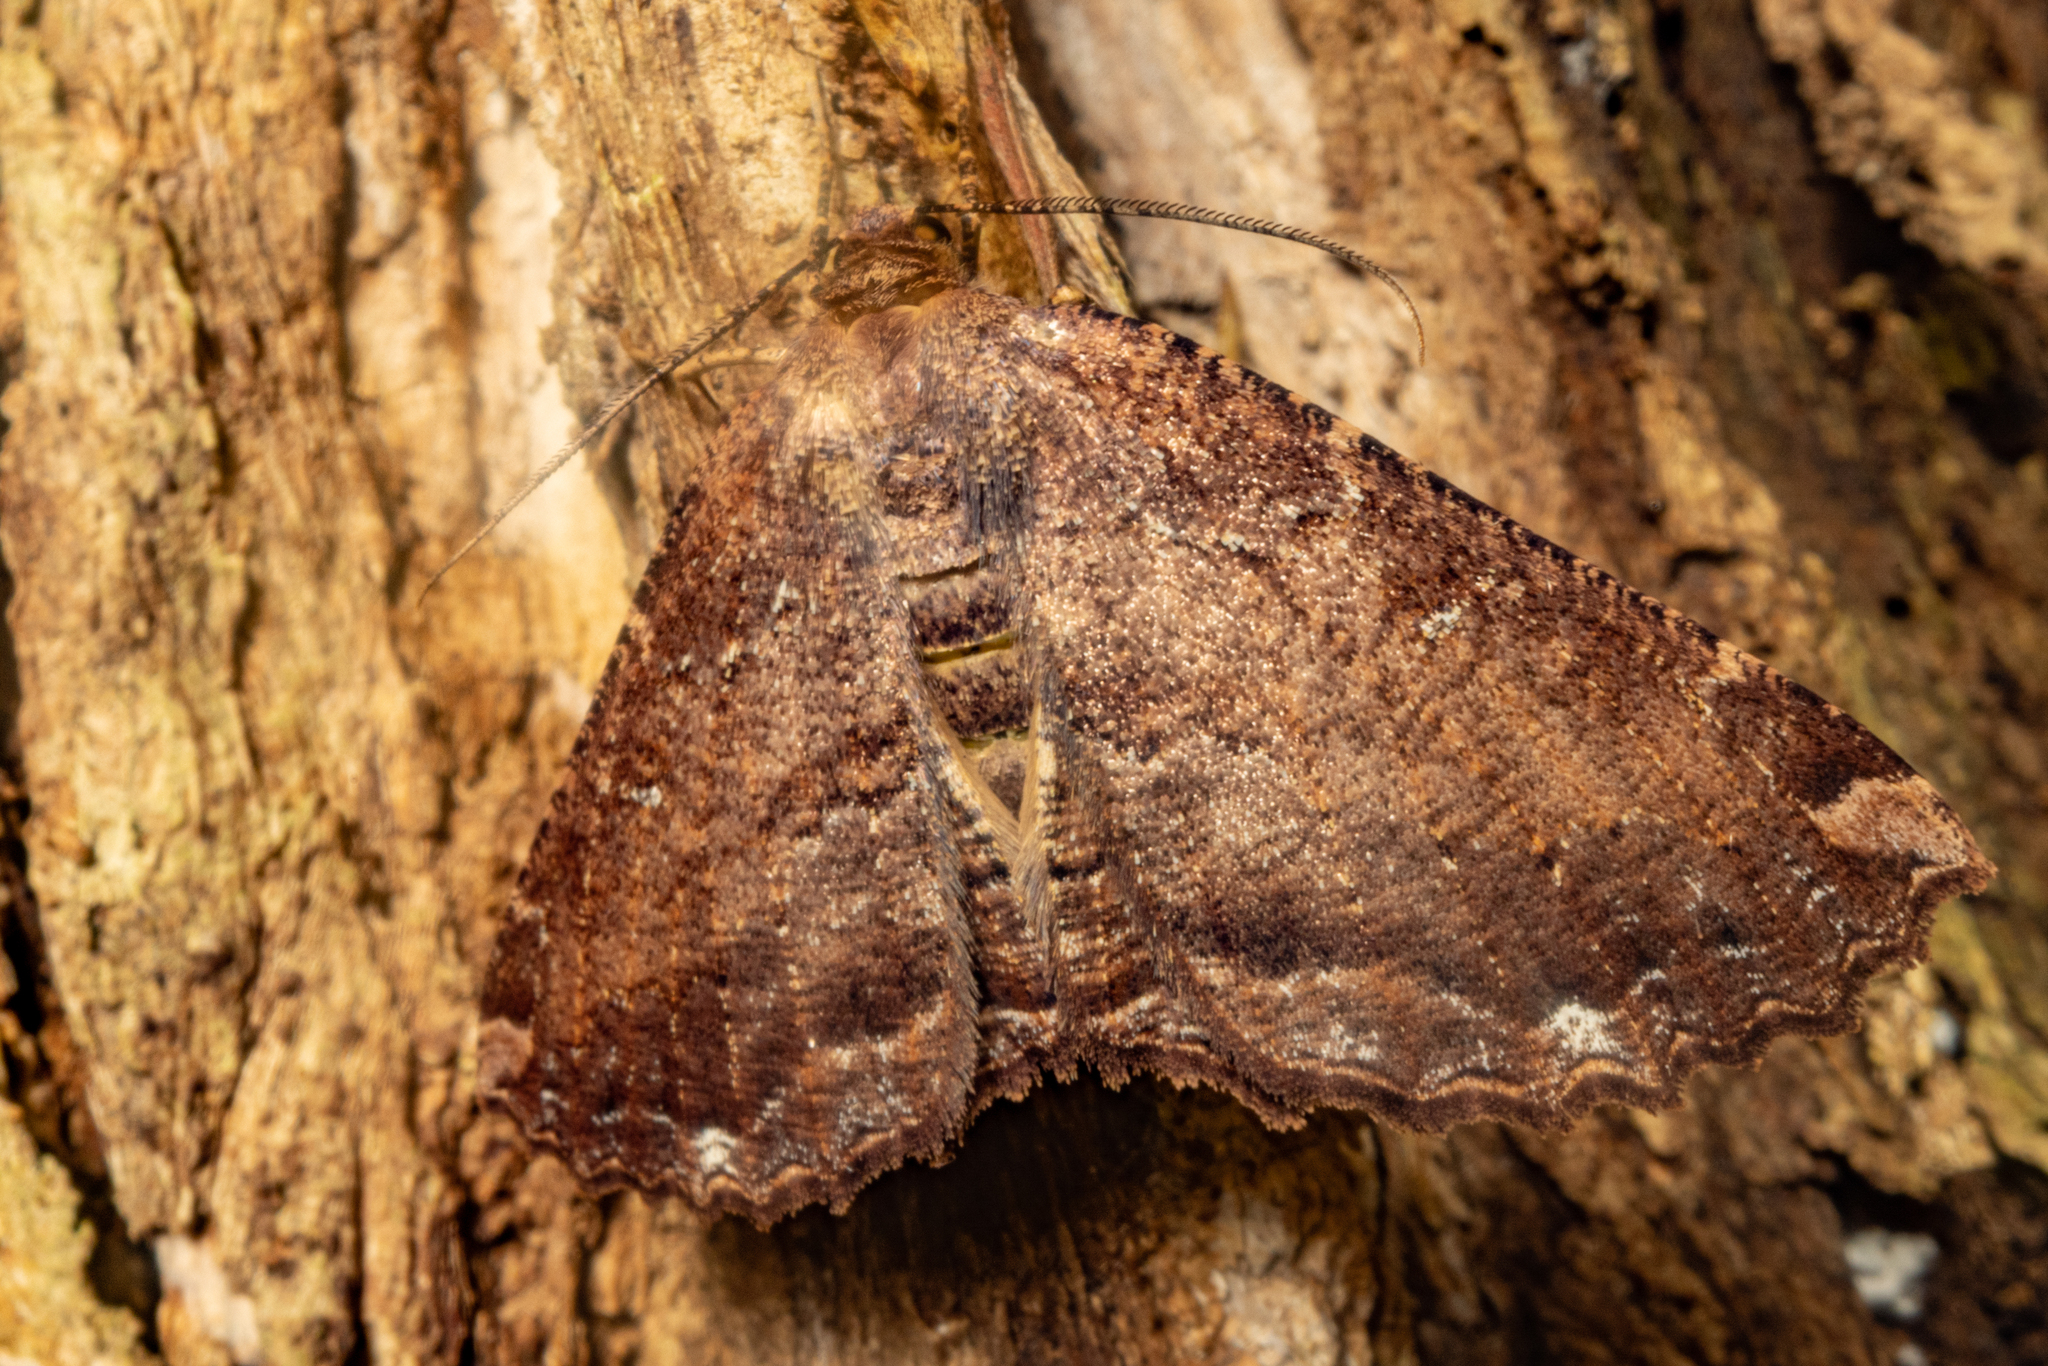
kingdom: Animalia
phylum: Arthropoda
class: Insecta
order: Lepidoptera
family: Geometridae
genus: Gellonia
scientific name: Gellonia dejectaria
